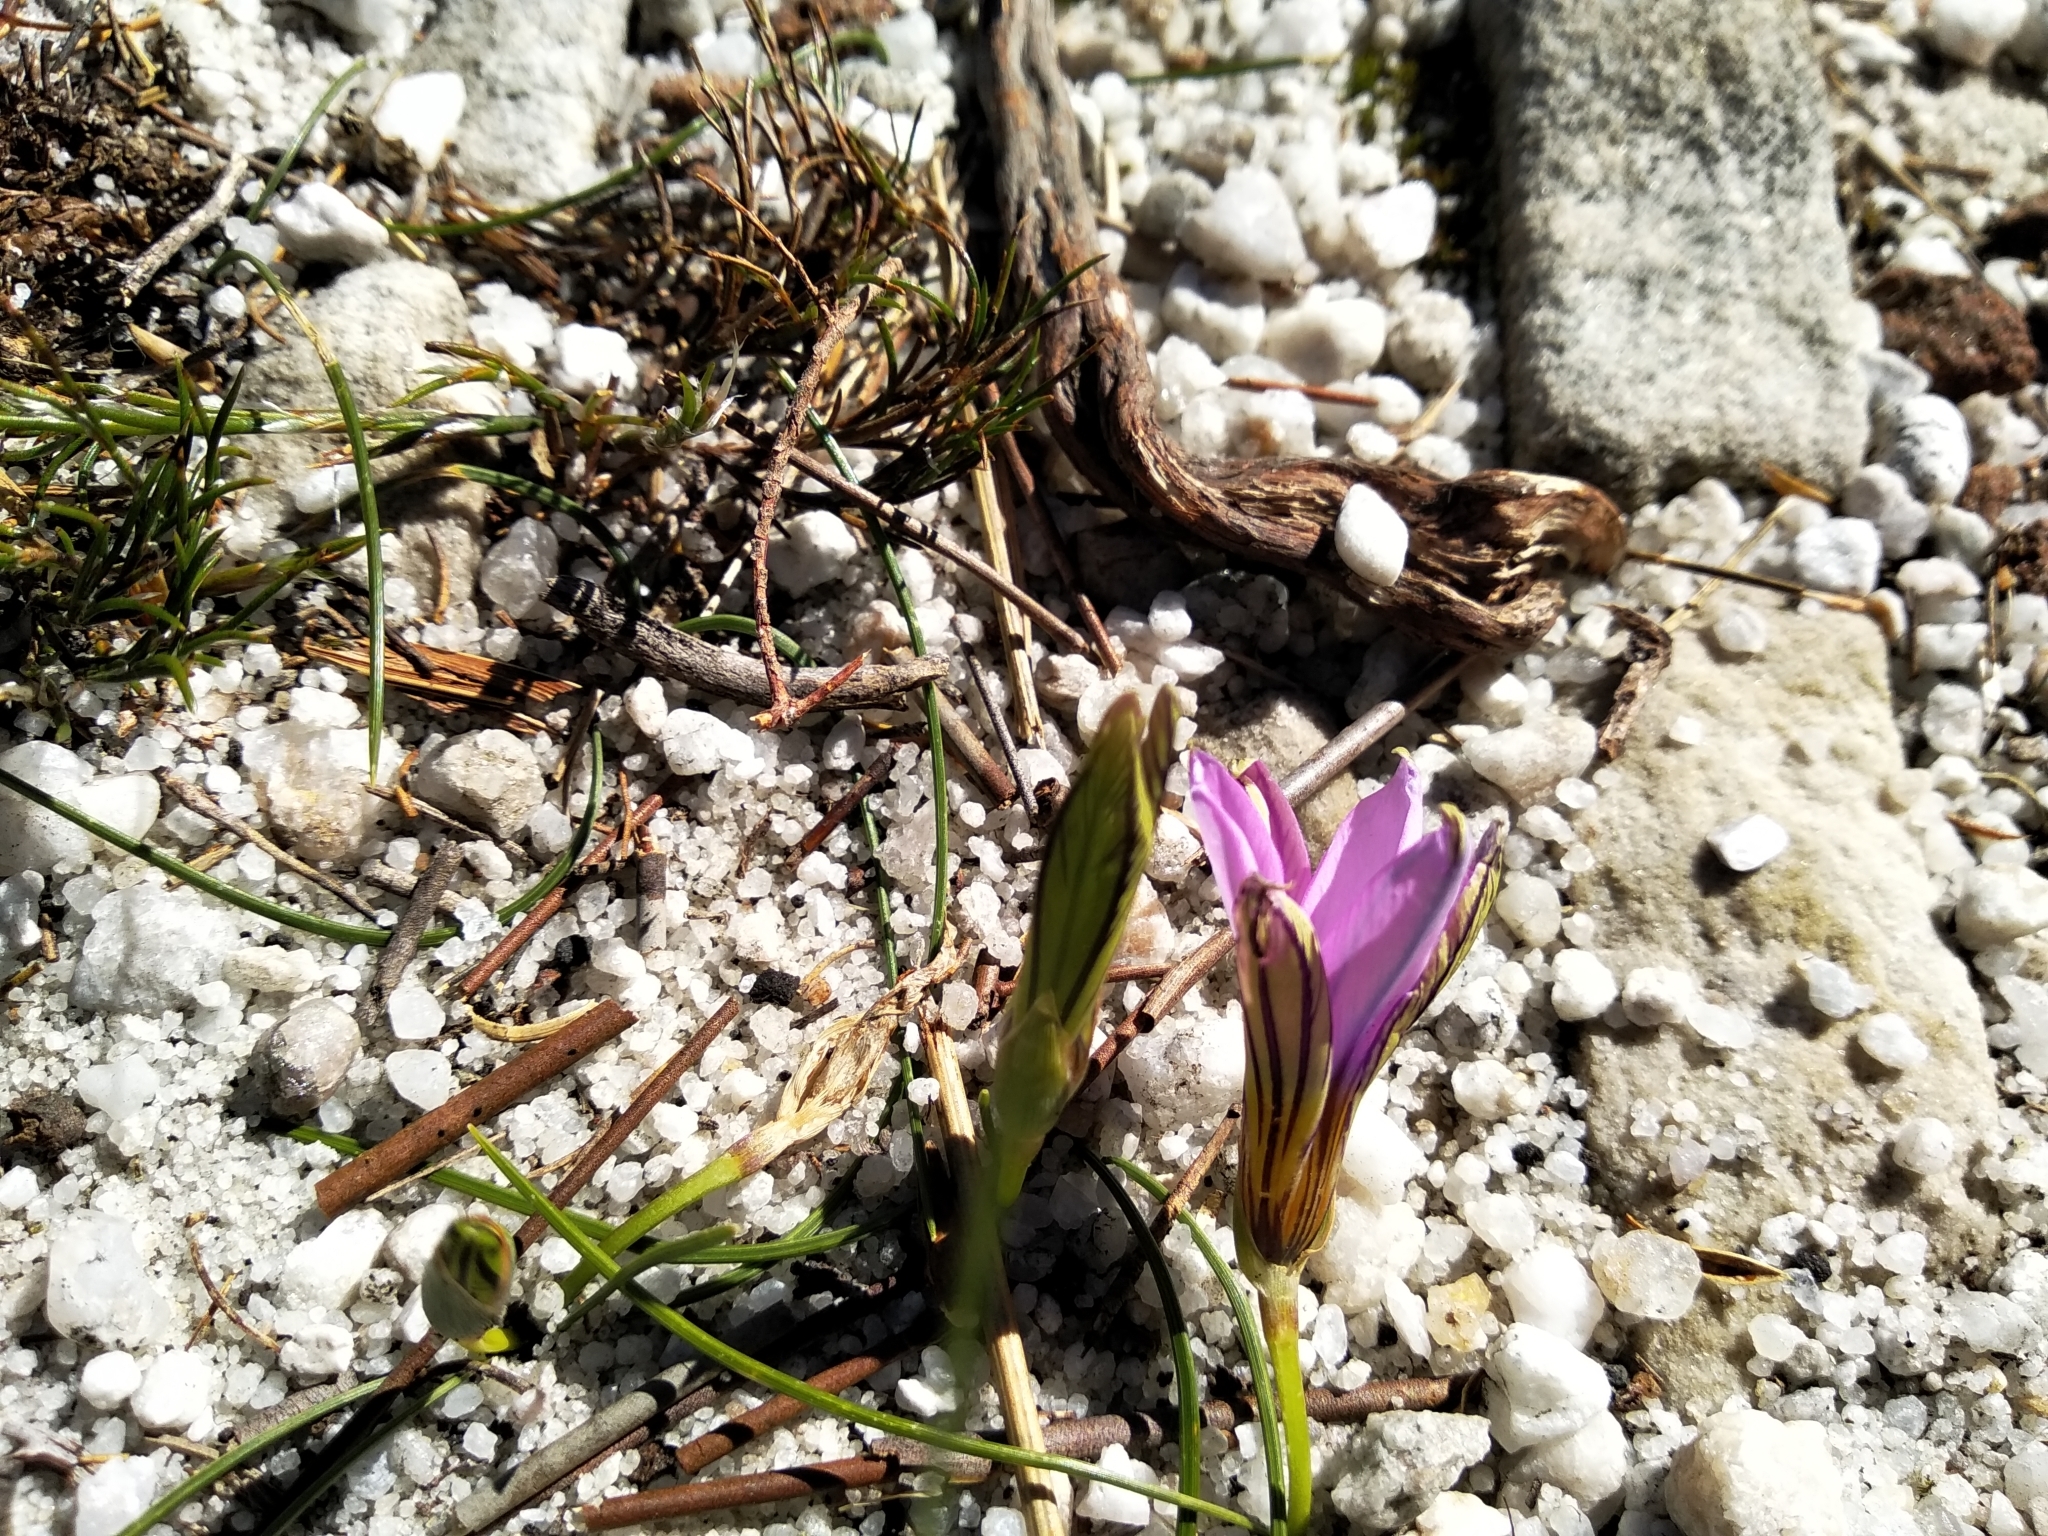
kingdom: Plantae
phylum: Tracheophyta
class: Liliopsida
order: Asparagales
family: Iridaceae
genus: Romulea
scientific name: Romulea rosea
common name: Oniongrass
